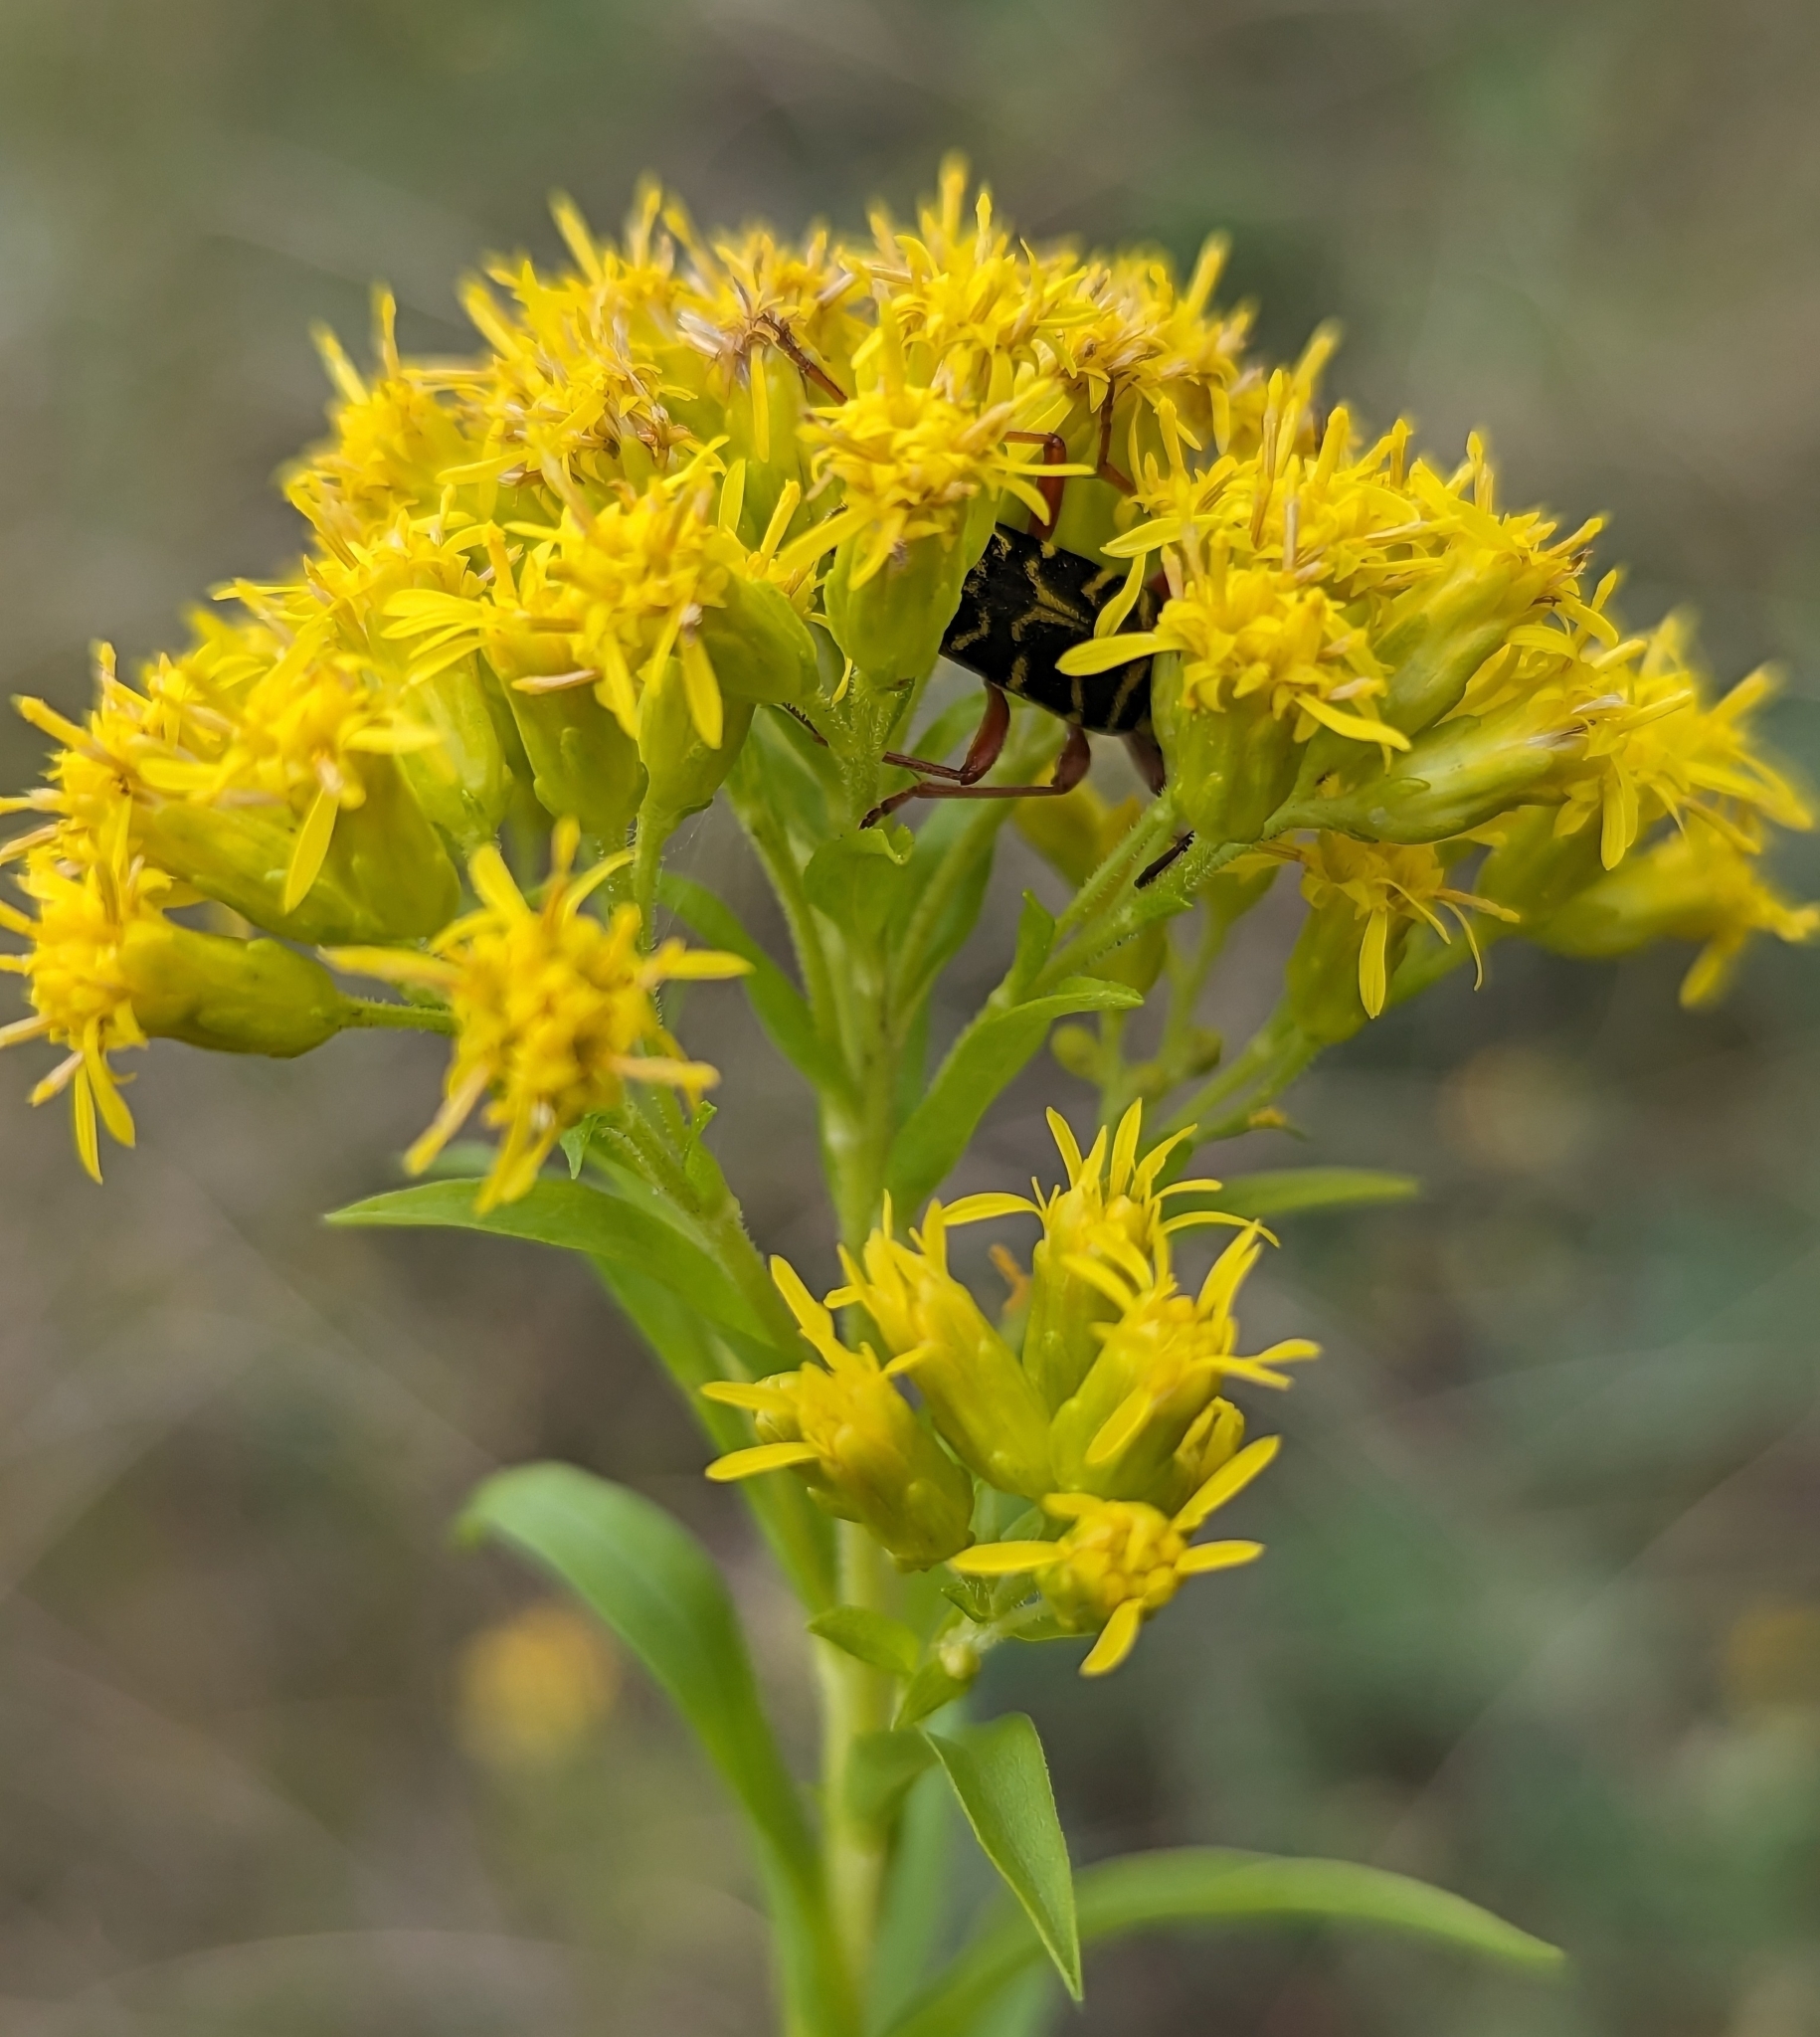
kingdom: Animalia
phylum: Arthropoda
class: Insecta
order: Coleoptera
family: Cerambycidae
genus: Megacyllene
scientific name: Megacyllene robiniae
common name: Locust borer
